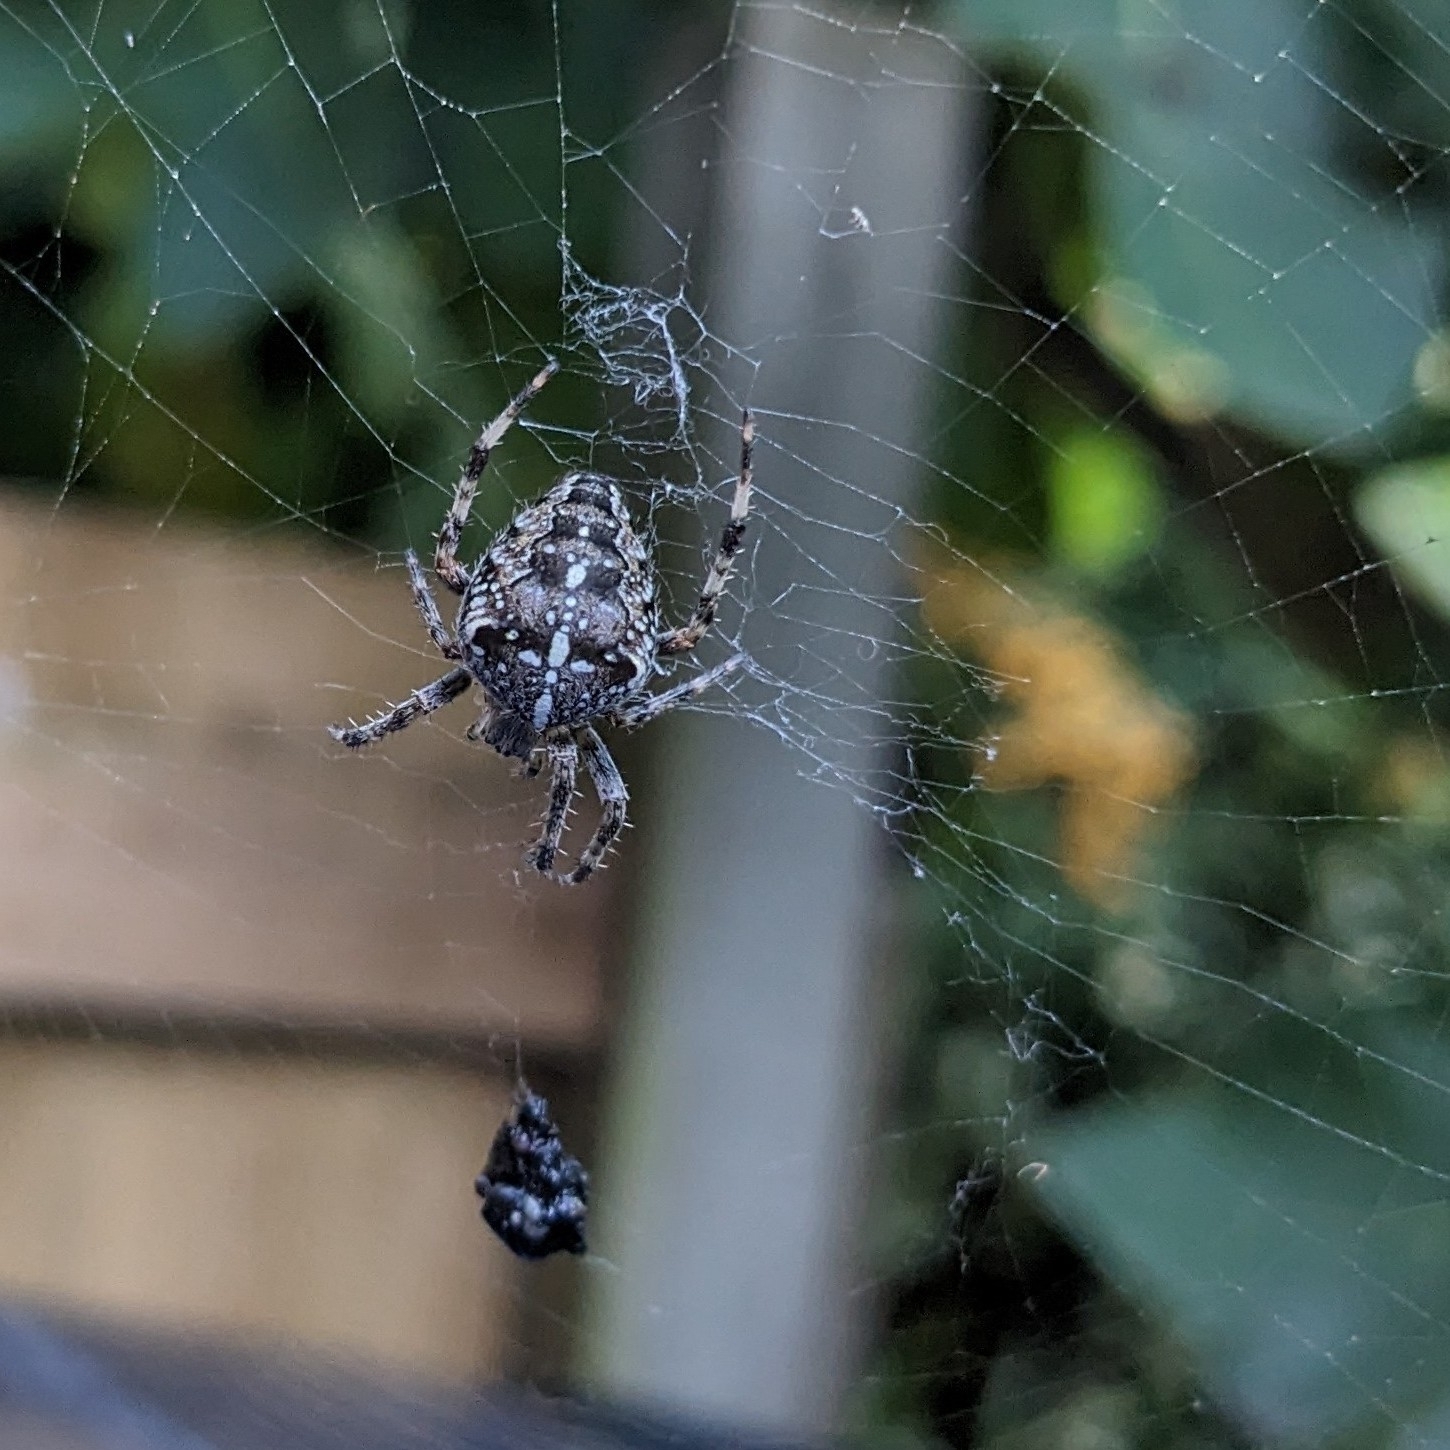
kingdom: Animalia
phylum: Arthropoda
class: Arachnida
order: Araneae
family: Araneidae
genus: Araneus
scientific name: Araneus diadematus
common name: Cross orbweaver
